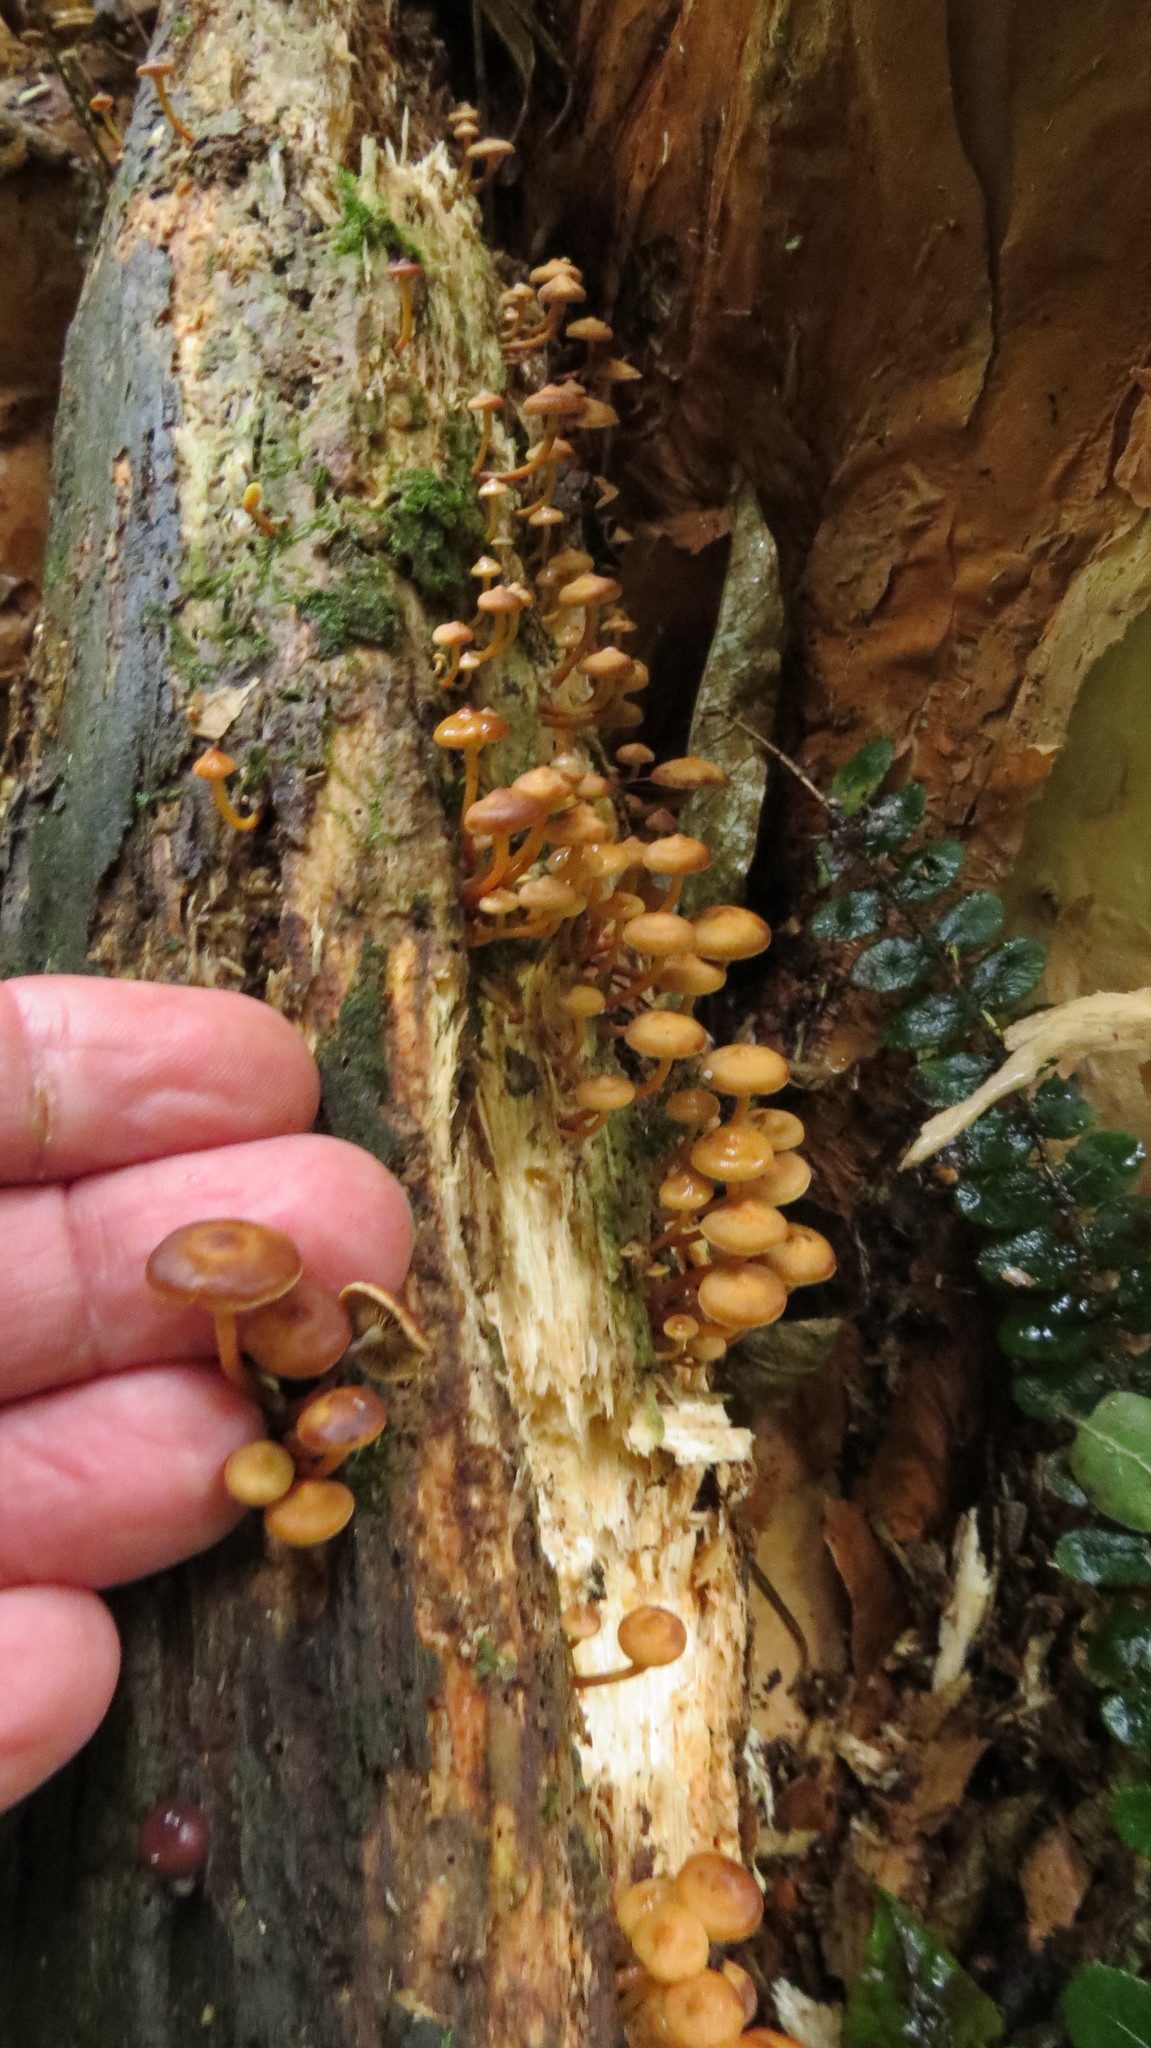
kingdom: Fungi
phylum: Basidiomycota
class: Agaricomycetes
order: Agaricales
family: Strophariaceae
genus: Hypholoma
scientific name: Hypholoma acutum
